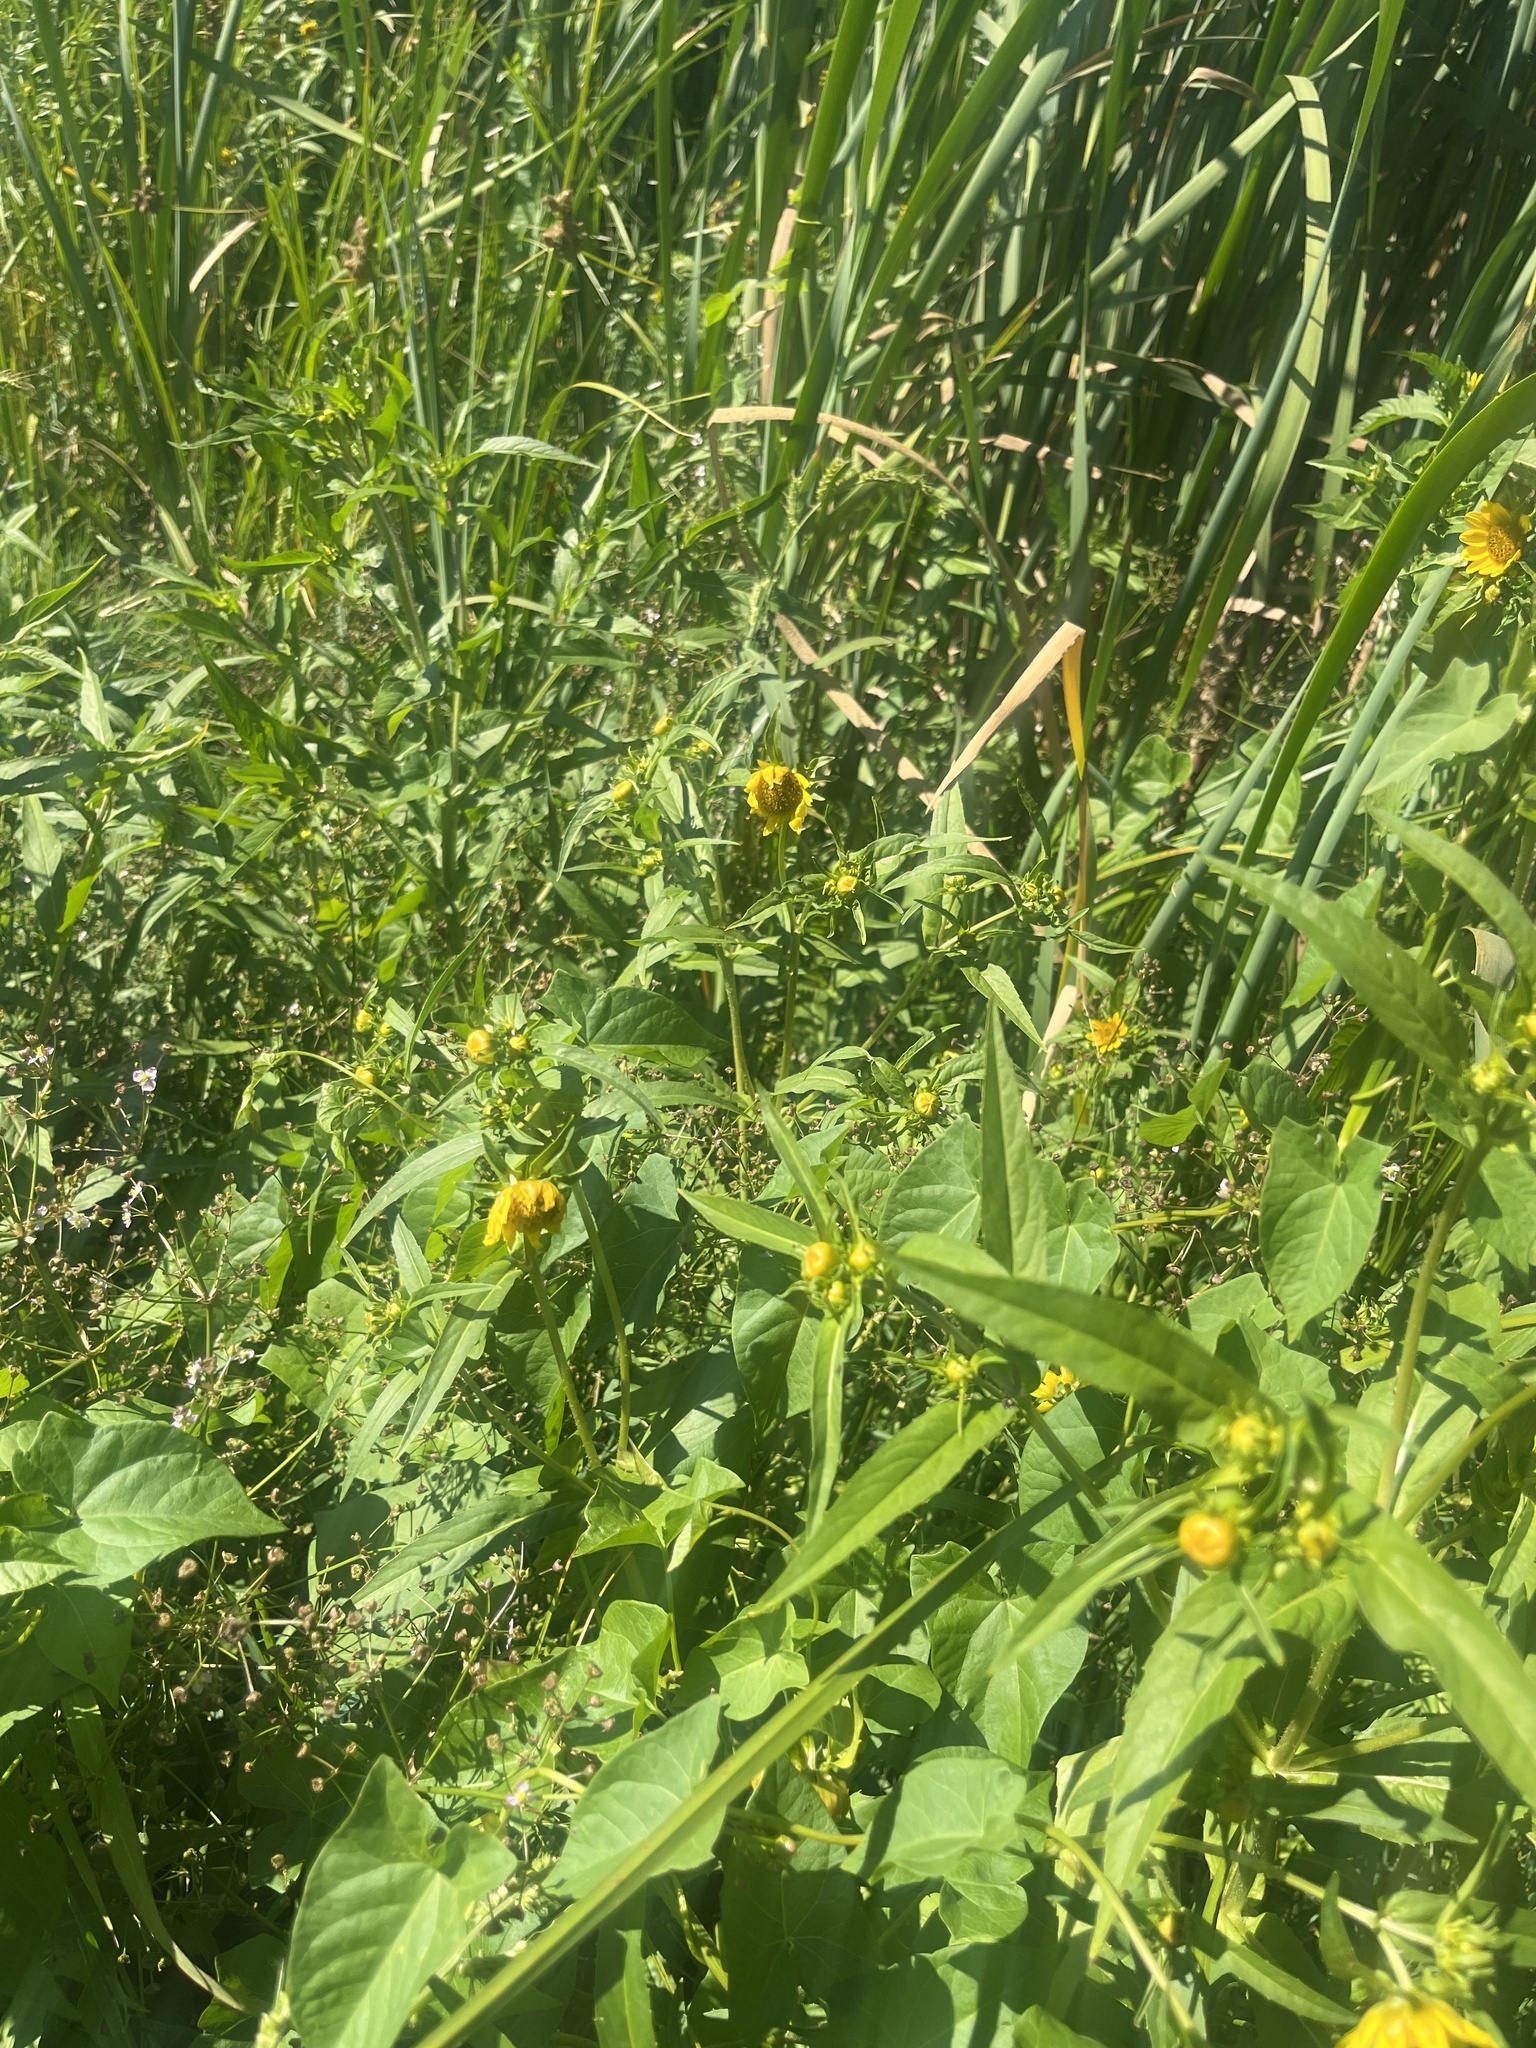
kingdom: Plantae
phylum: Tracheophyta
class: Magnoliopsida
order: Asterales
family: Asteraceae
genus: Bidens
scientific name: Bidens cernua
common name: Nodding bur-marigold
